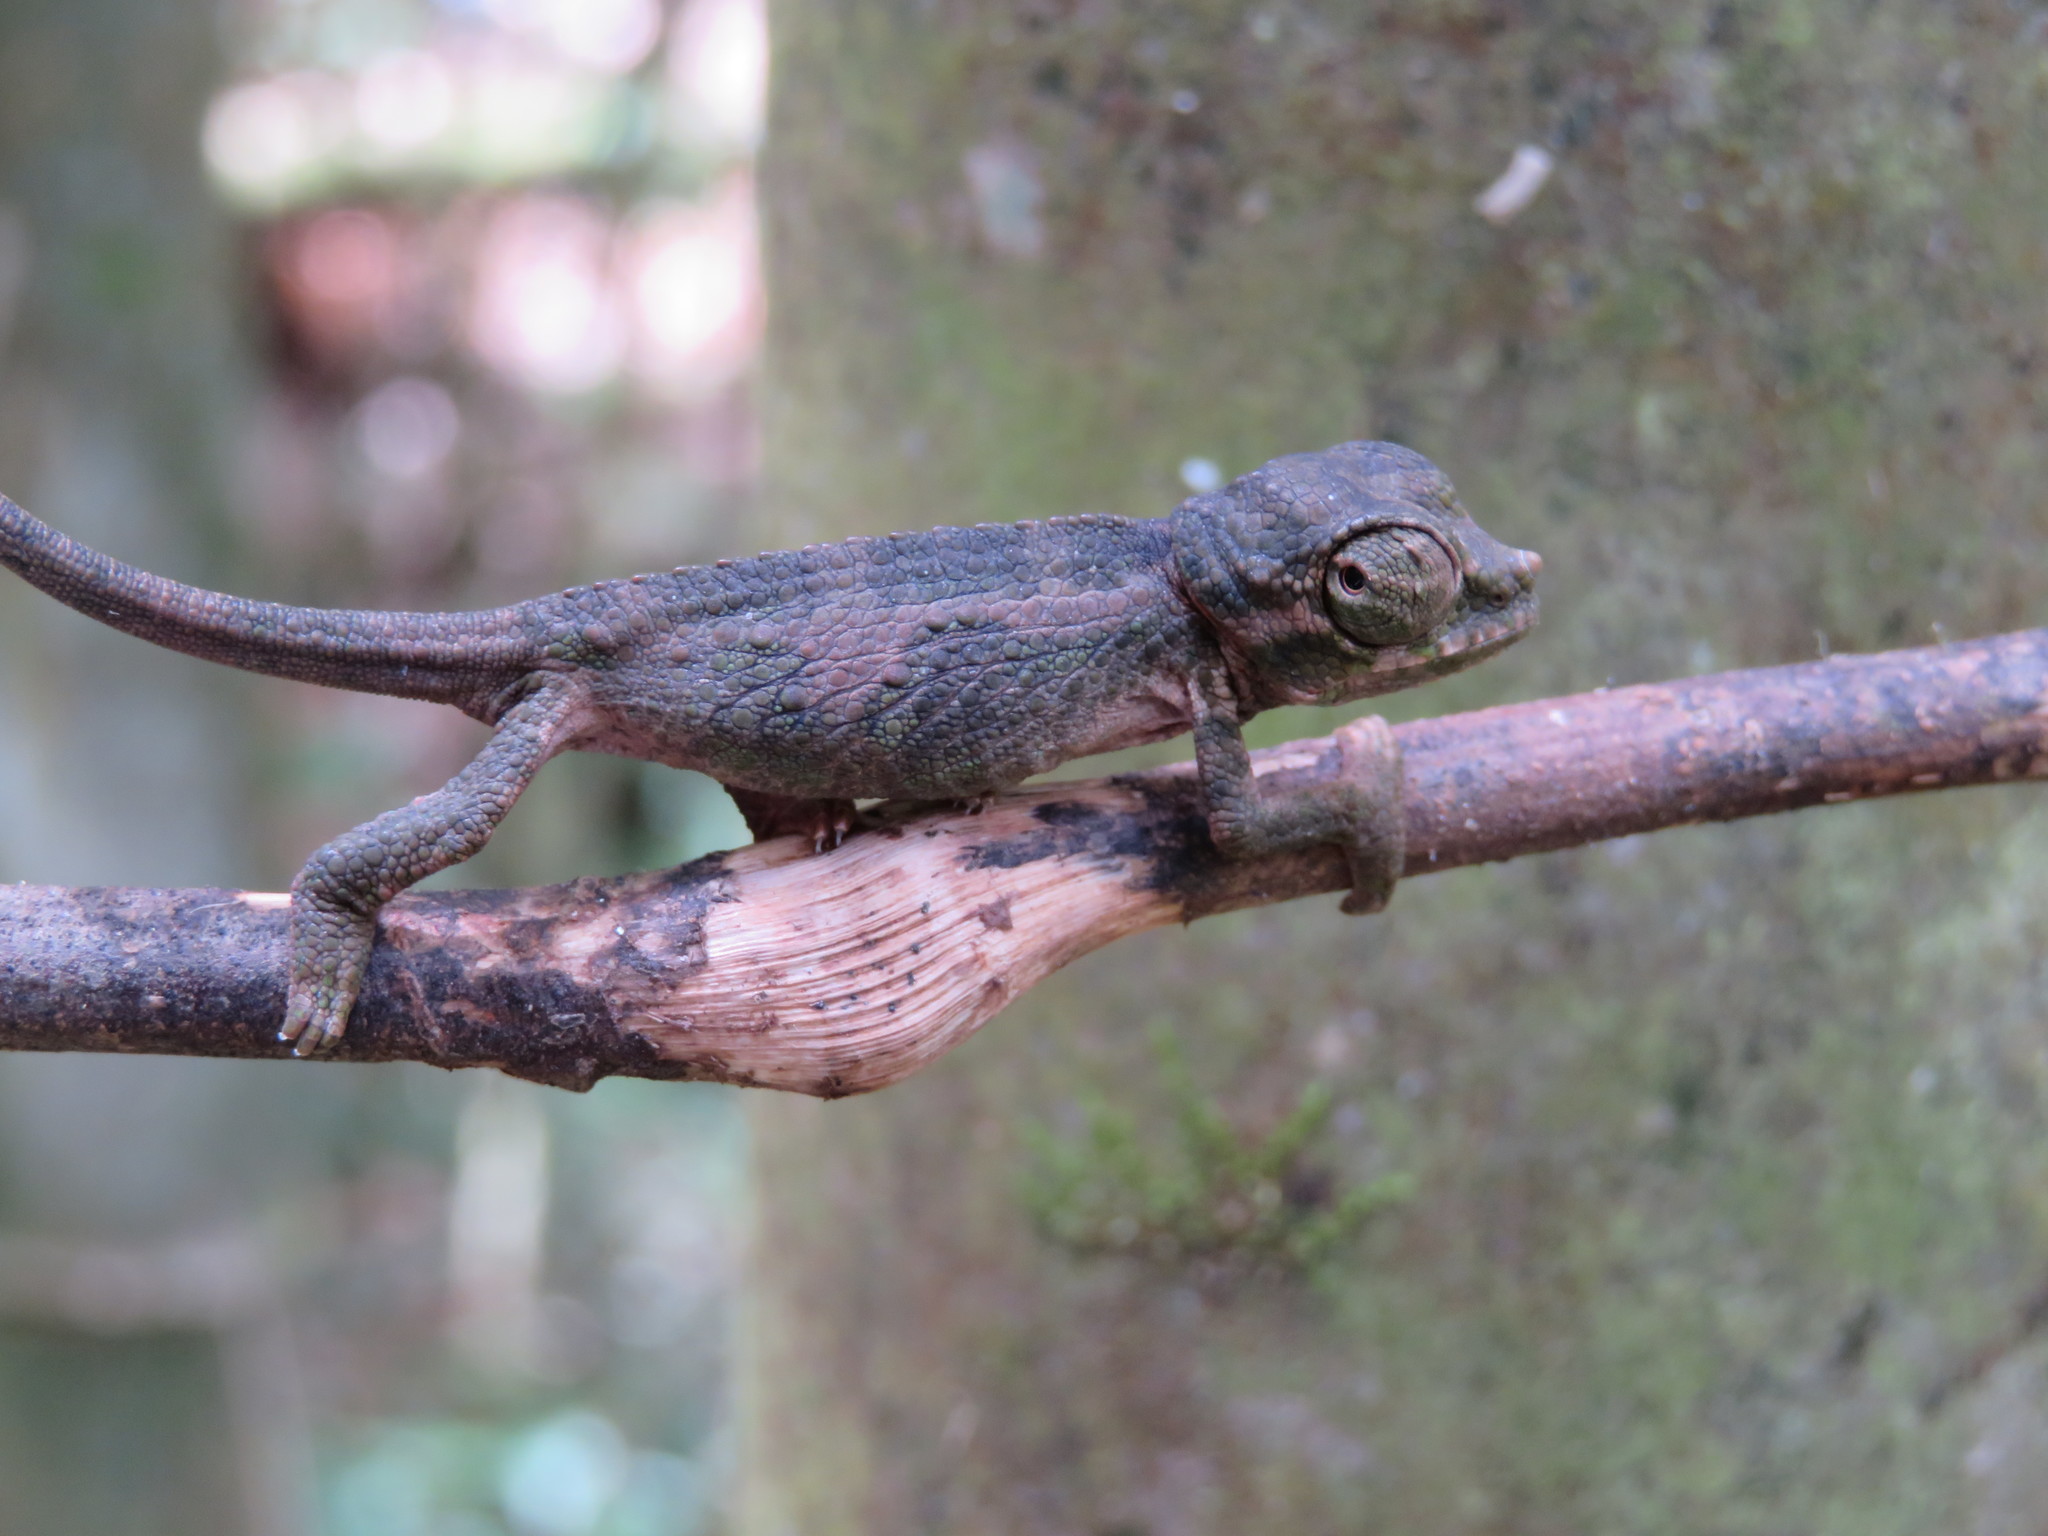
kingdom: Animalia
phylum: Chordata
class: Squamata
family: Chamaeleonidae
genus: Trioceros
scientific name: Trioceros werneri
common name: Wemer's chameleon
